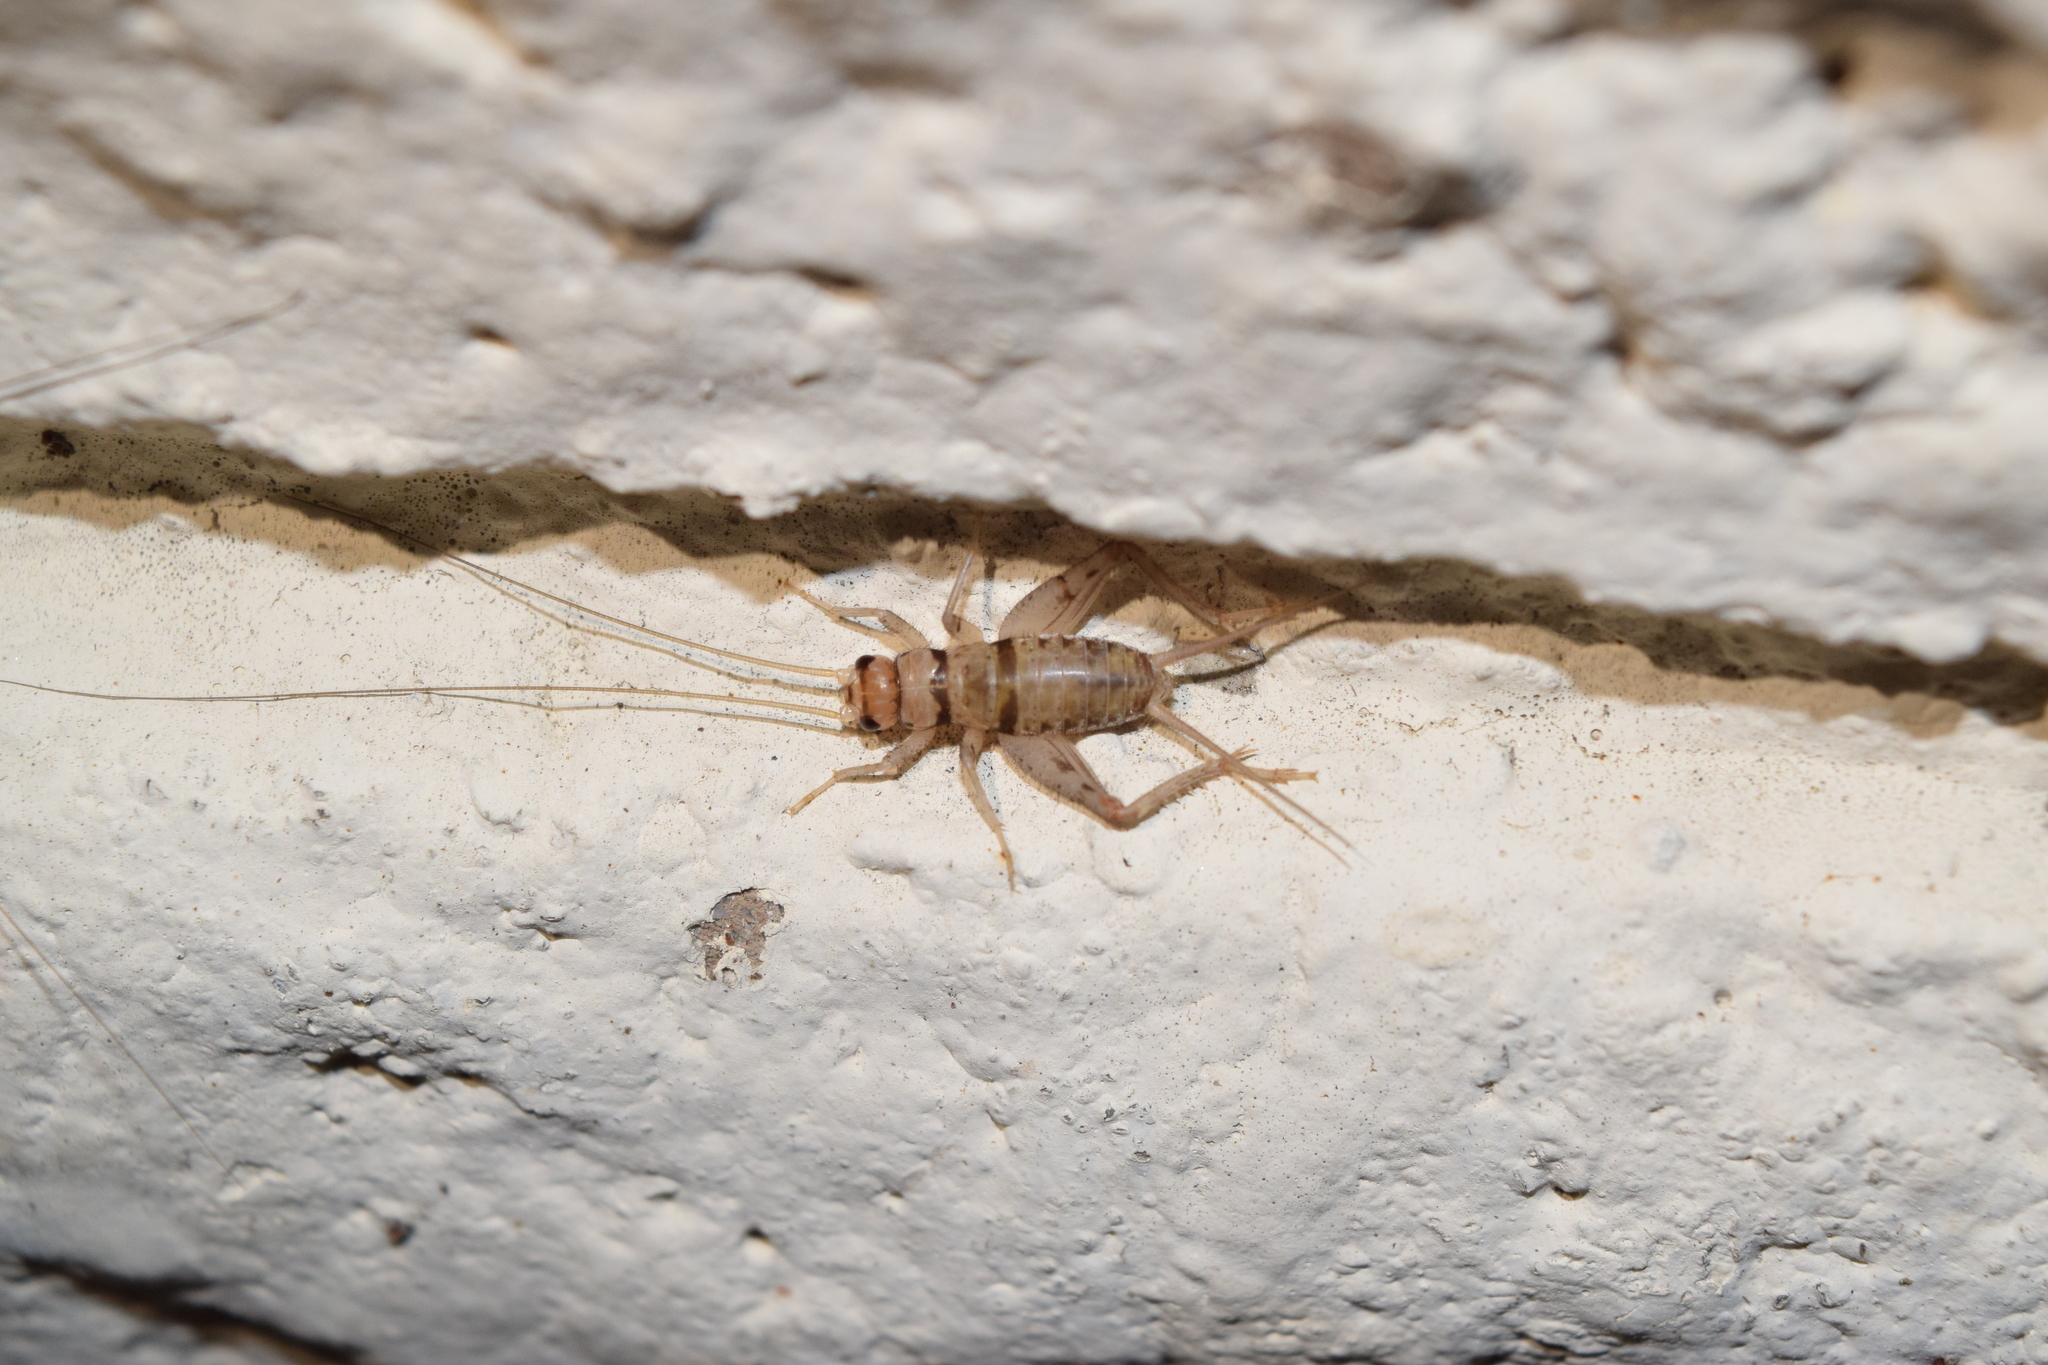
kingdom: Animalia
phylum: Arthropoda
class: Insecta
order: Orthoptera
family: Gryllidae
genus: Gryllodes
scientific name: Gryllodes sigillatus
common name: Tropical house cricket
